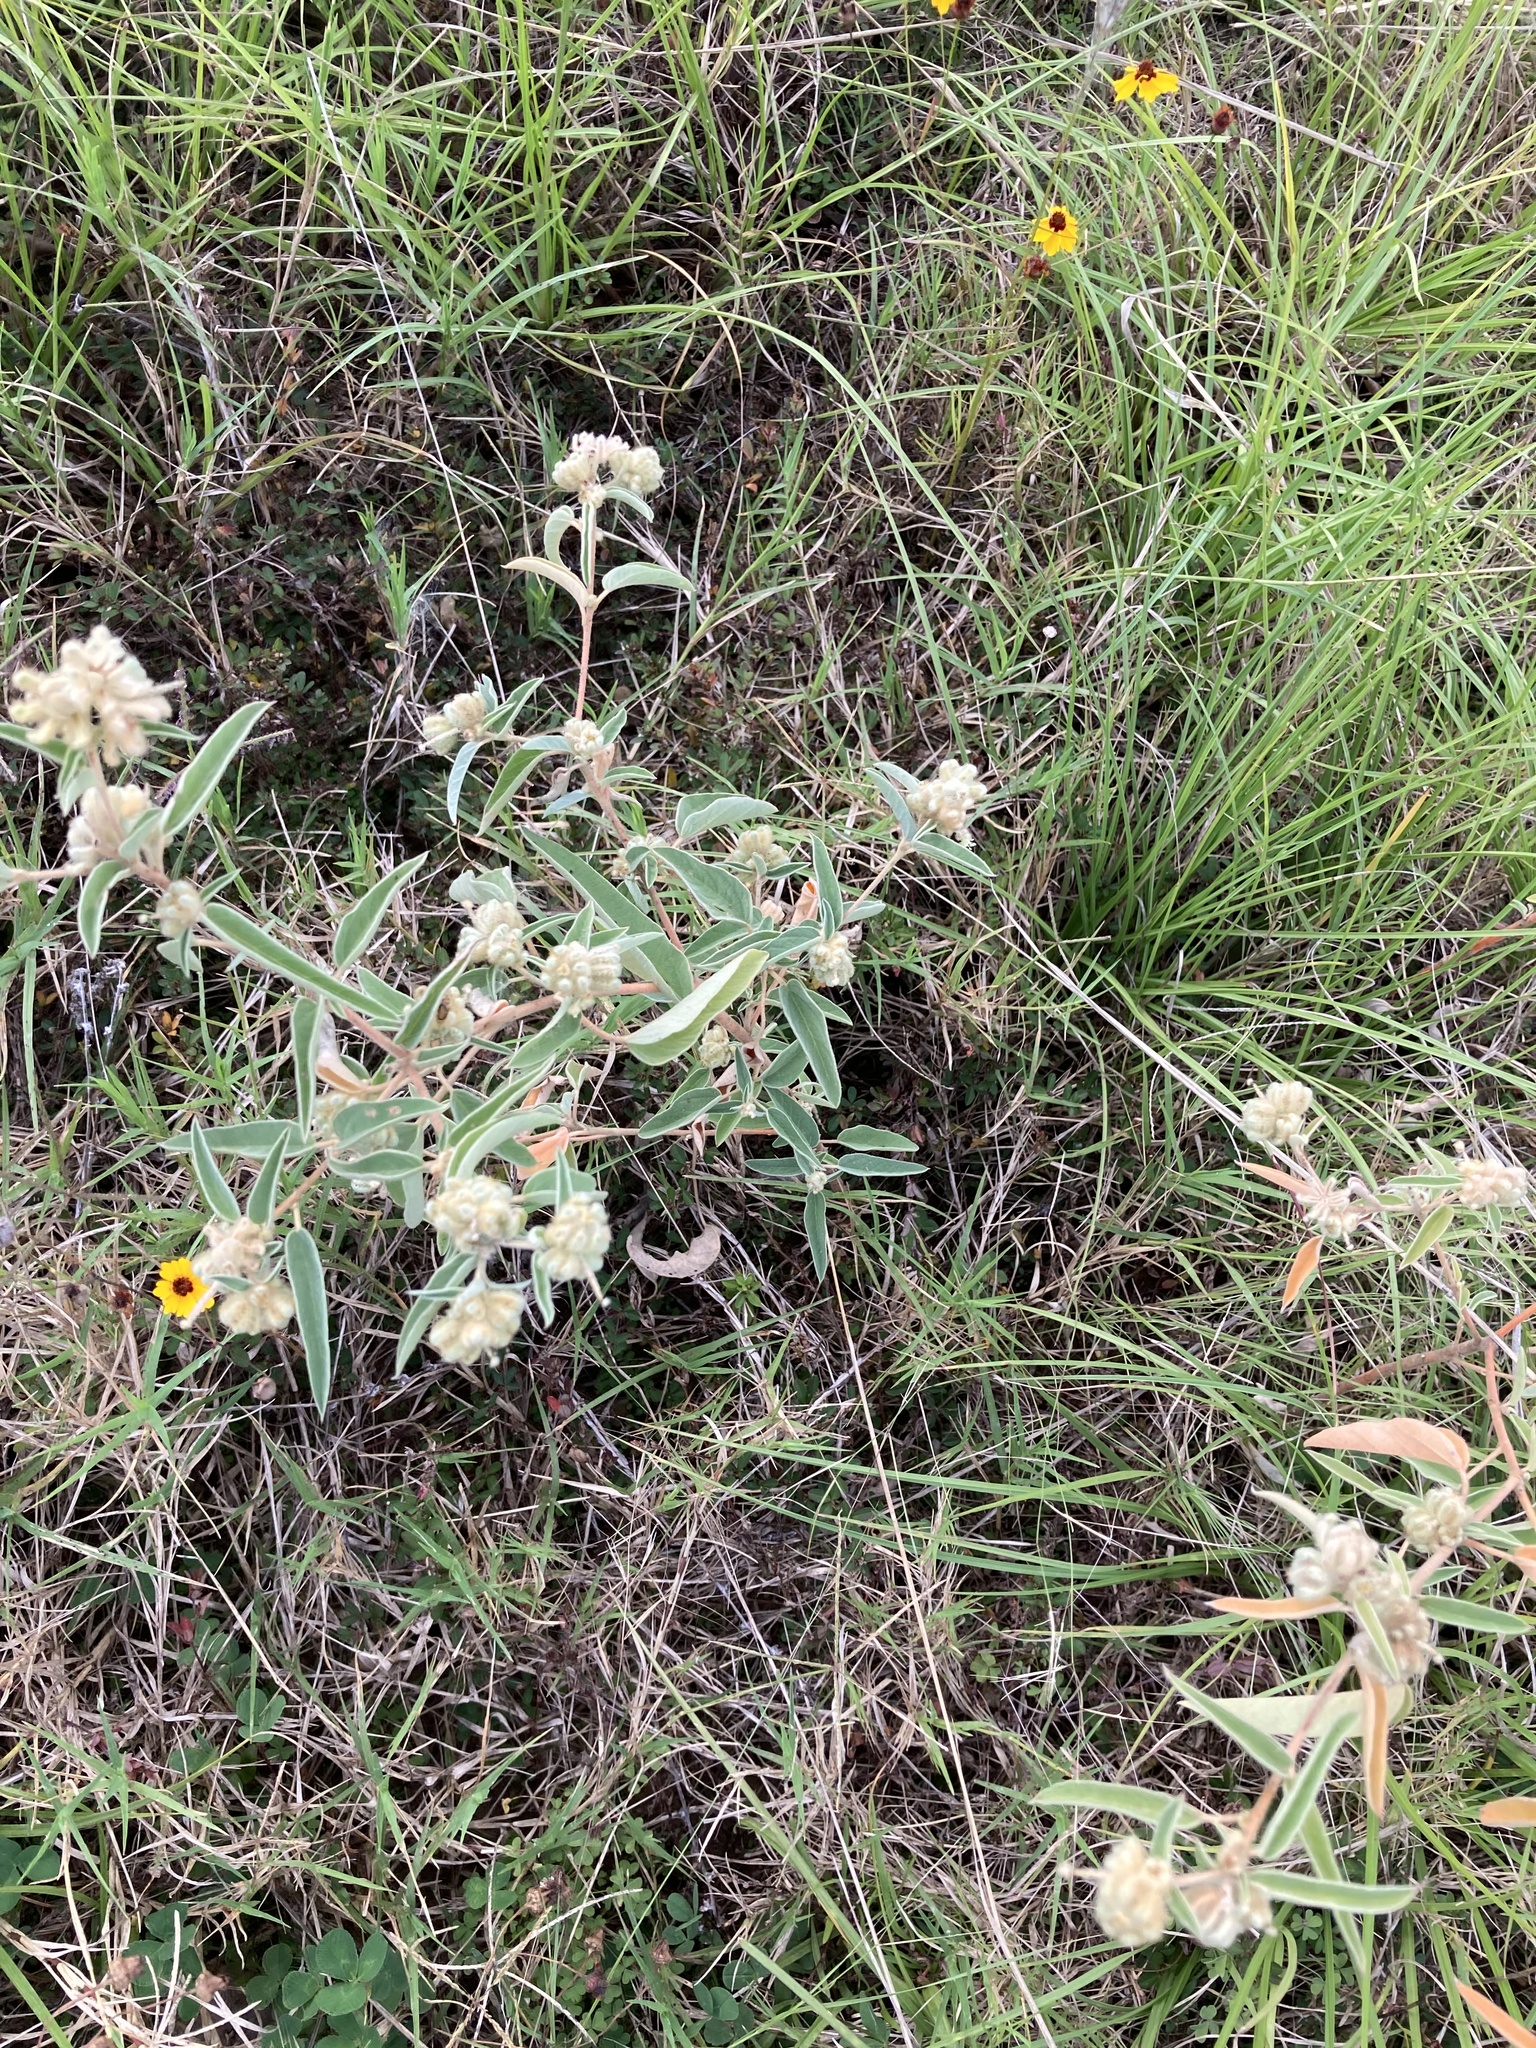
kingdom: Plantae
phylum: Tracheophyta
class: Magnoliopsida
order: Malpighiales
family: Euphorbiaceae
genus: Croton
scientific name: Croton lindheimeri
